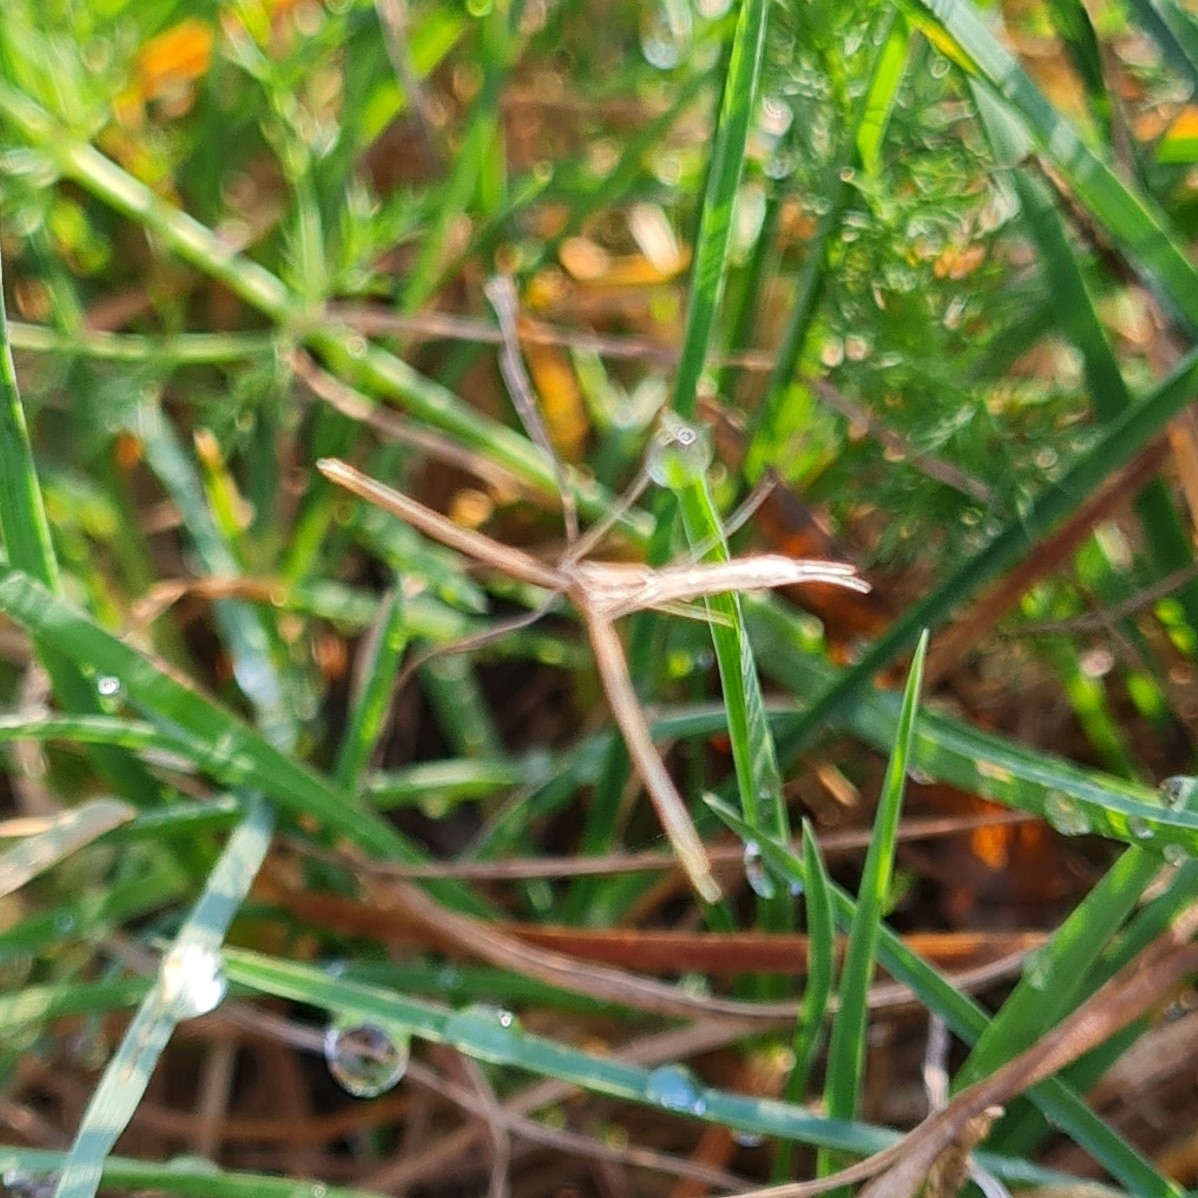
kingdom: Animalia
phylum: Arthropoda
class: Insecta
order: Lepidoptera
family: Pterophoridae
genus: Emmelina
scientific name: Emmelina monodactyla
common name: Common plume
